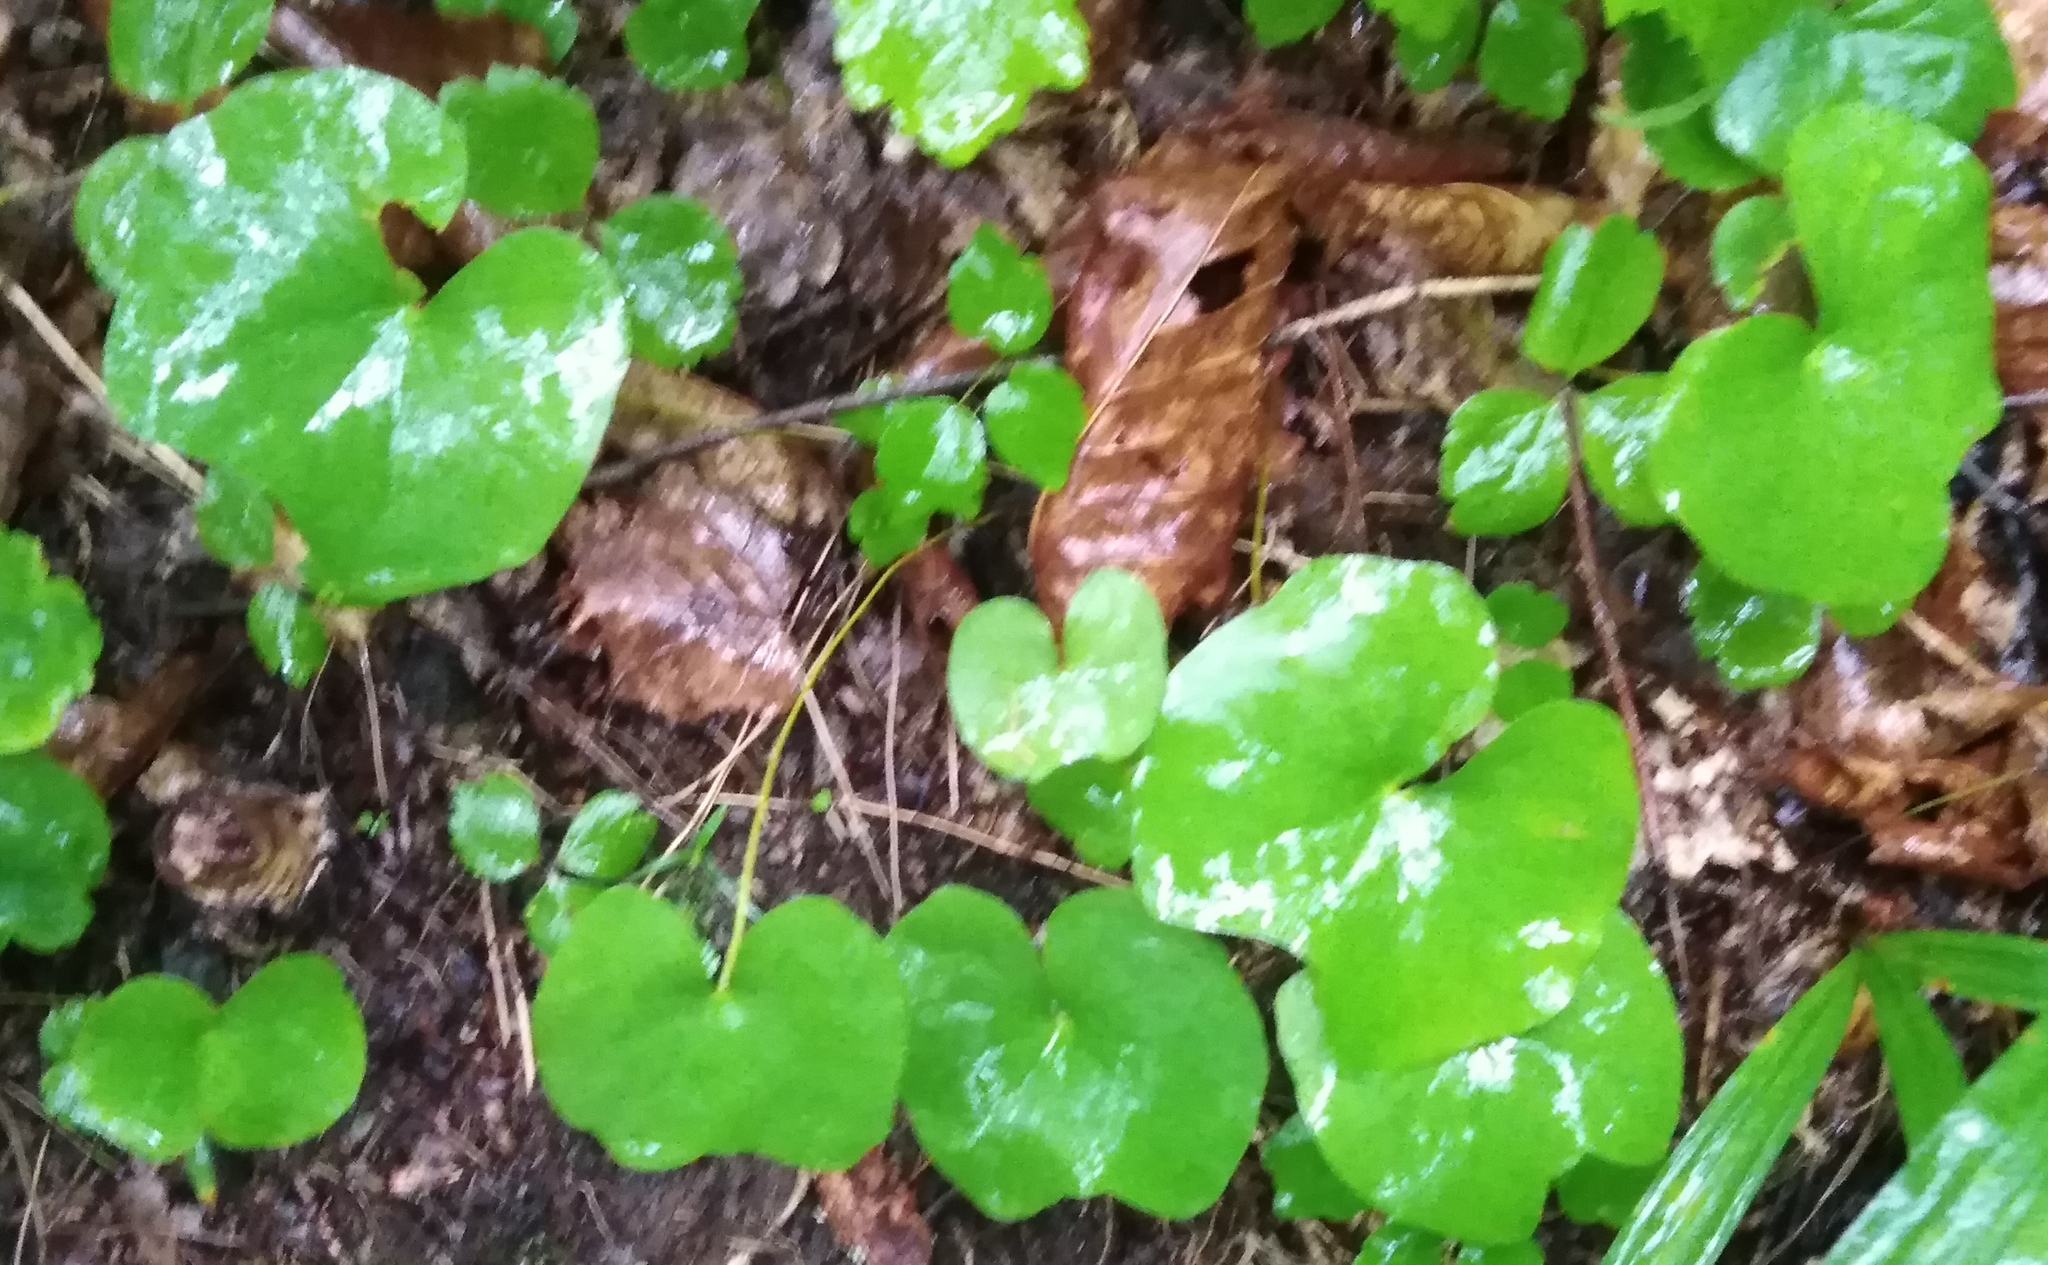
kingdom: Plantae
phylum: Tracheophyta
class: Magnoliopsida
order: Ranunculales
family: Berberidaceae
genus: Plagiorhegma
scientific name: Plagiorhegma dubium
